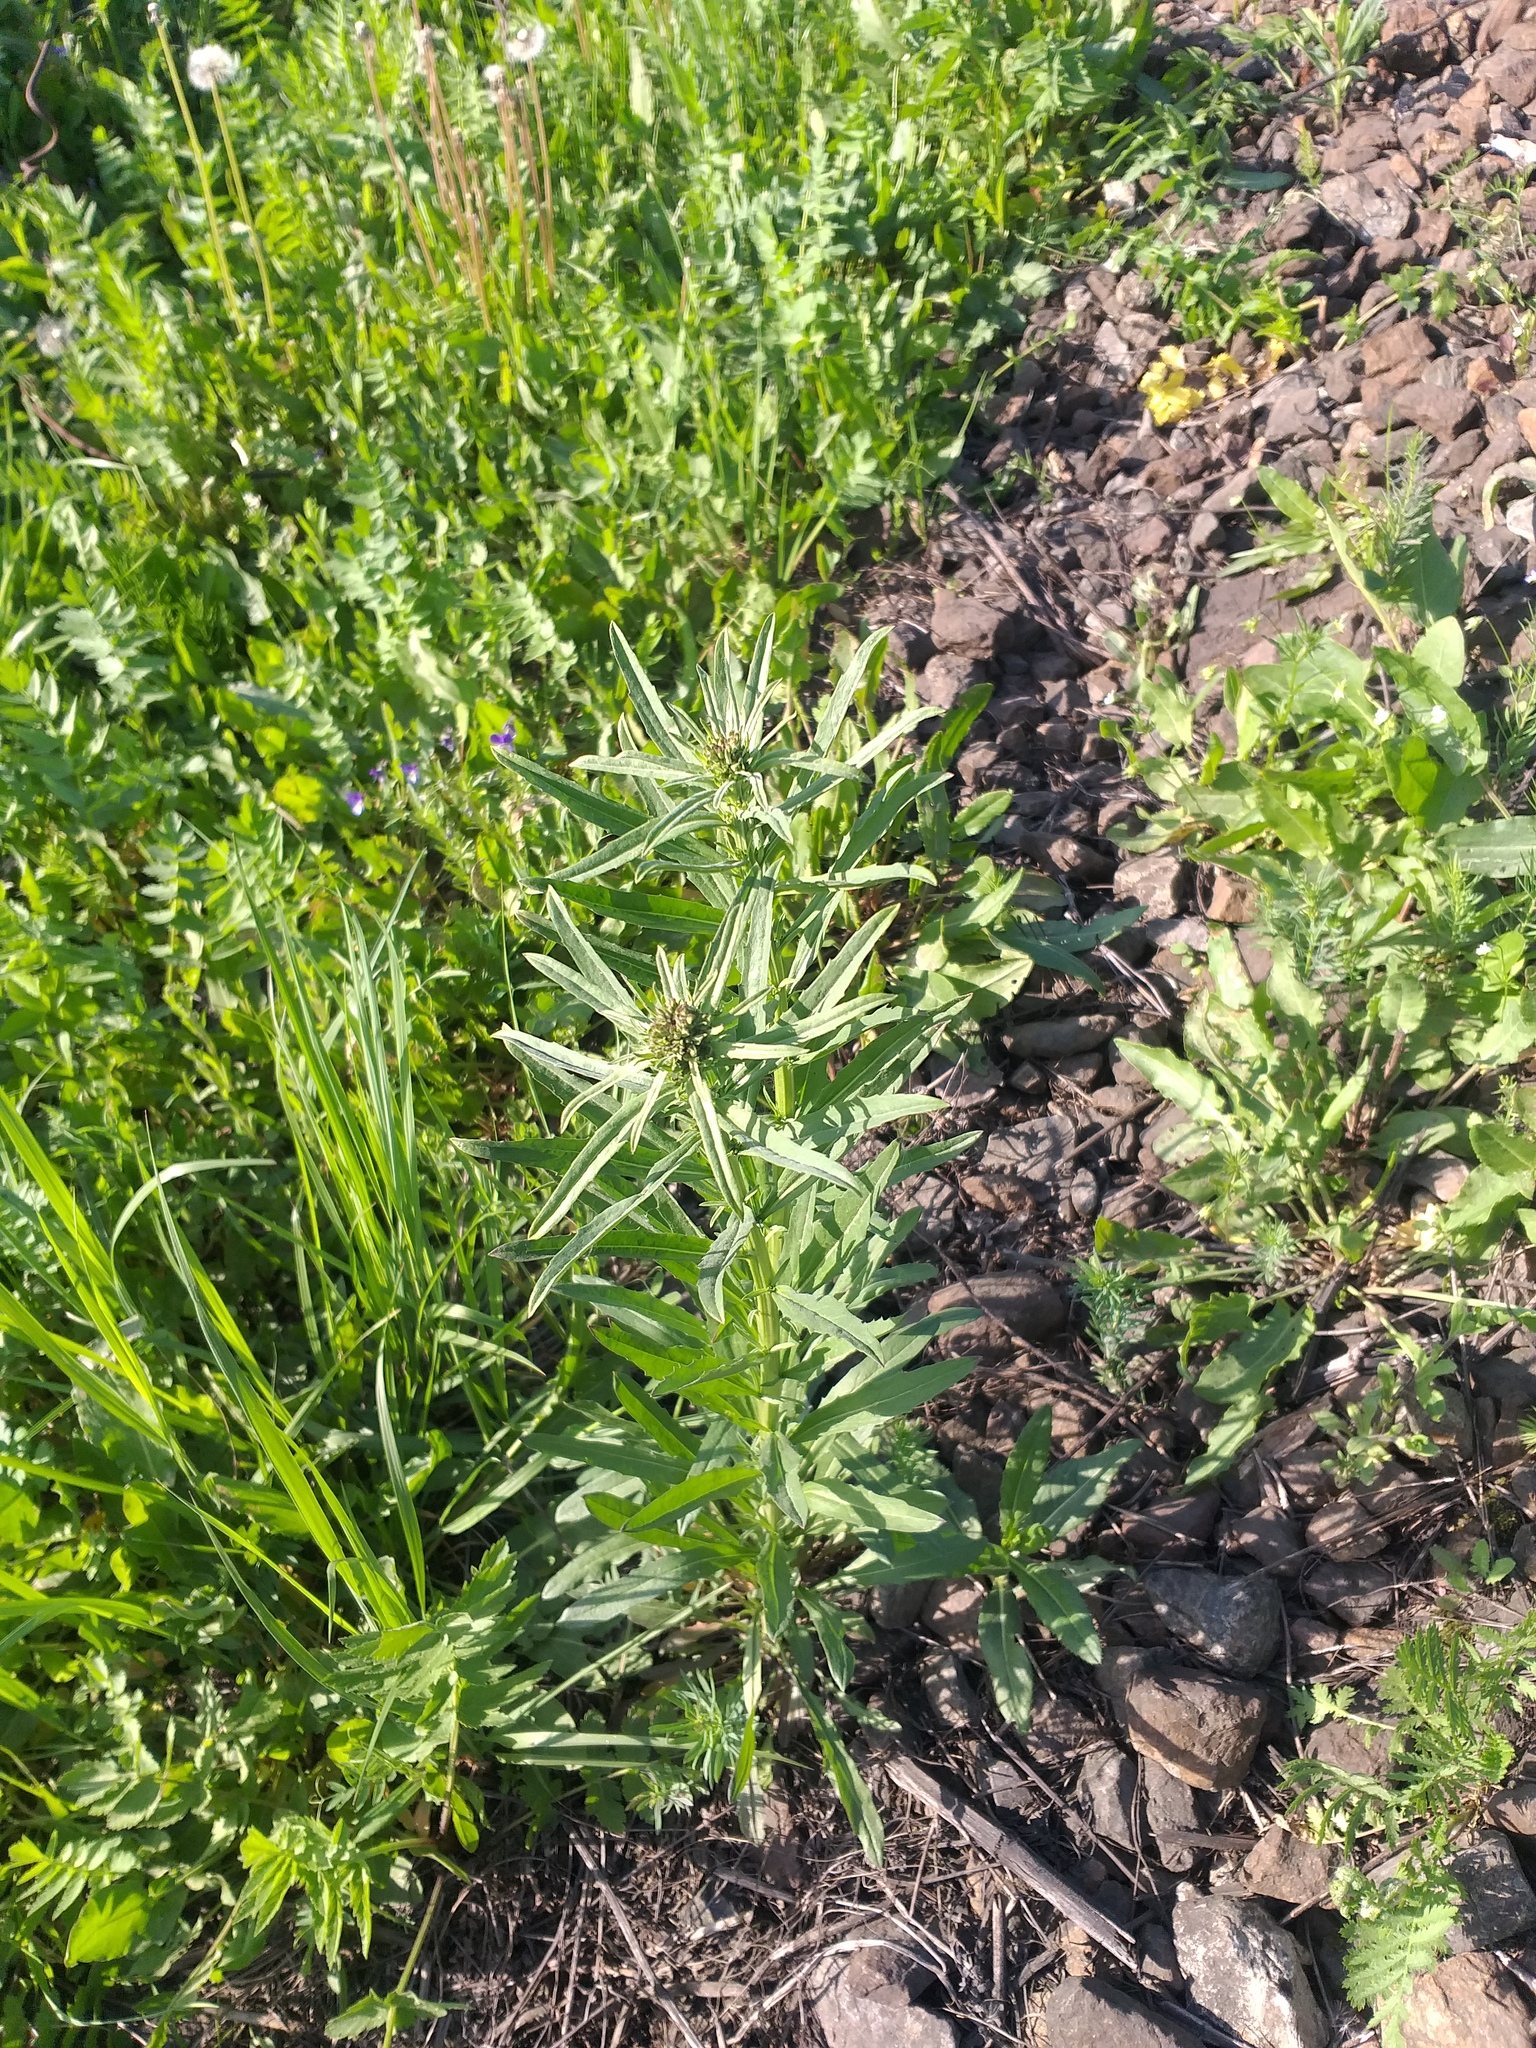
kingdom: Plantae
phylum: Tracheophyta
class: Magnoliopsida
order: Brassicales
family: Brassicaceae
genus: Erysimum
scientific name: Erysimum hieraciifolium
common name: European wallflower
